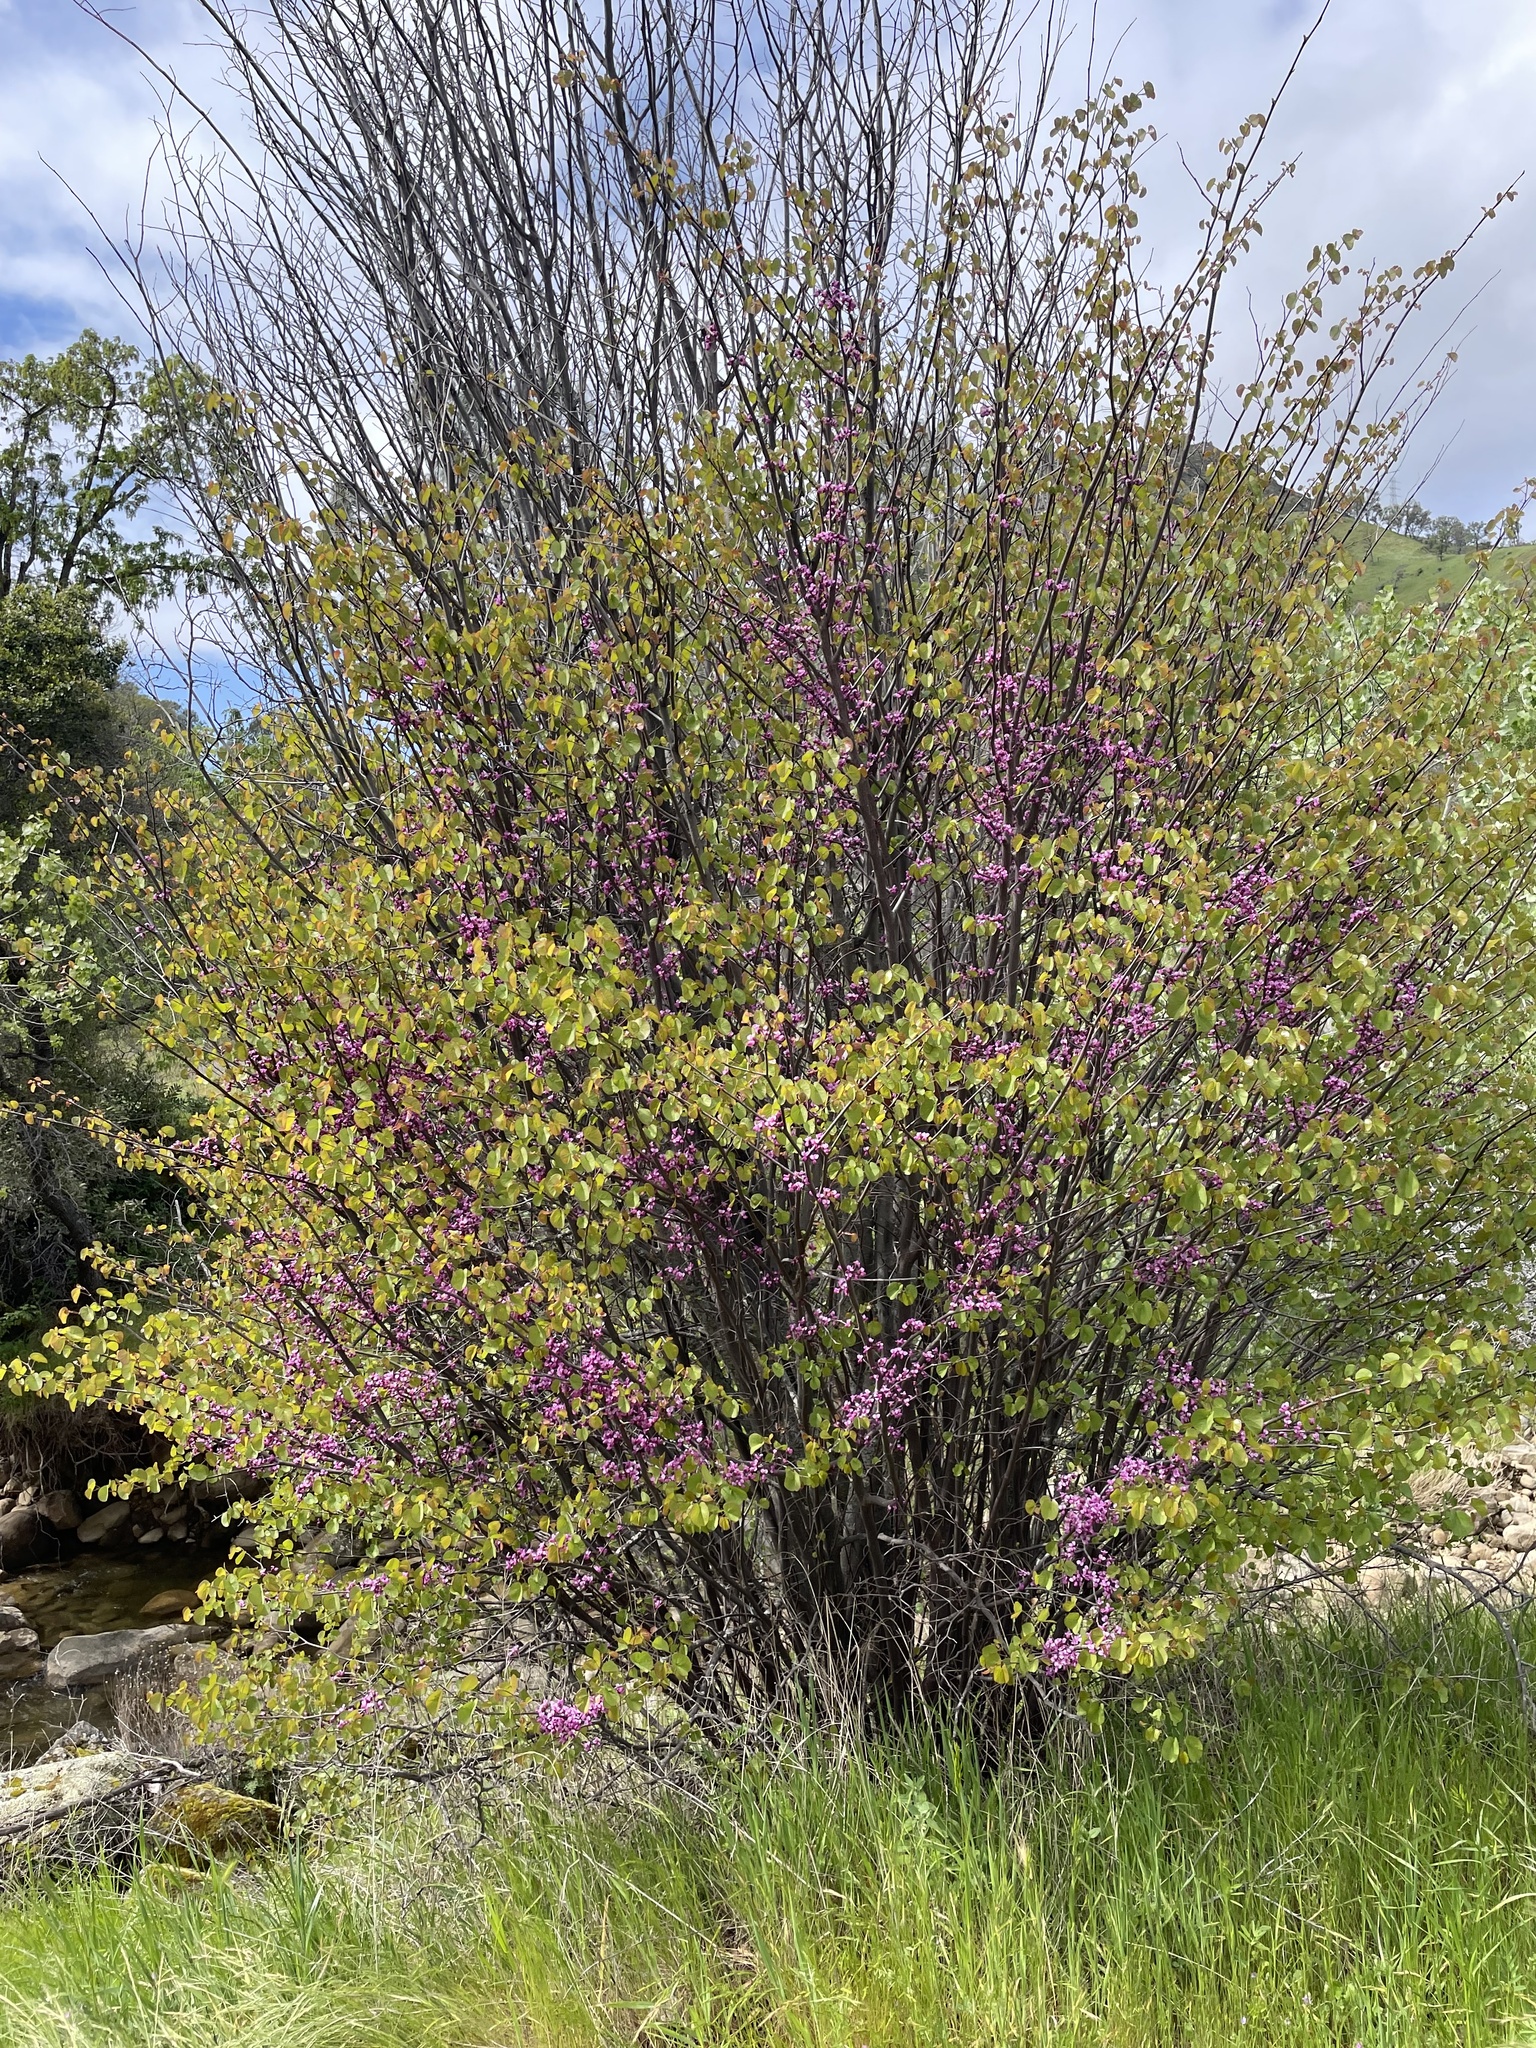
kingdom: Plantae
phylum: Tracheophyta
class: Magnoliopsida
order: Fabales
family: Fabaceae
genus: Cercis
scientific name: Cercis occidentalis
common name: California redbud
